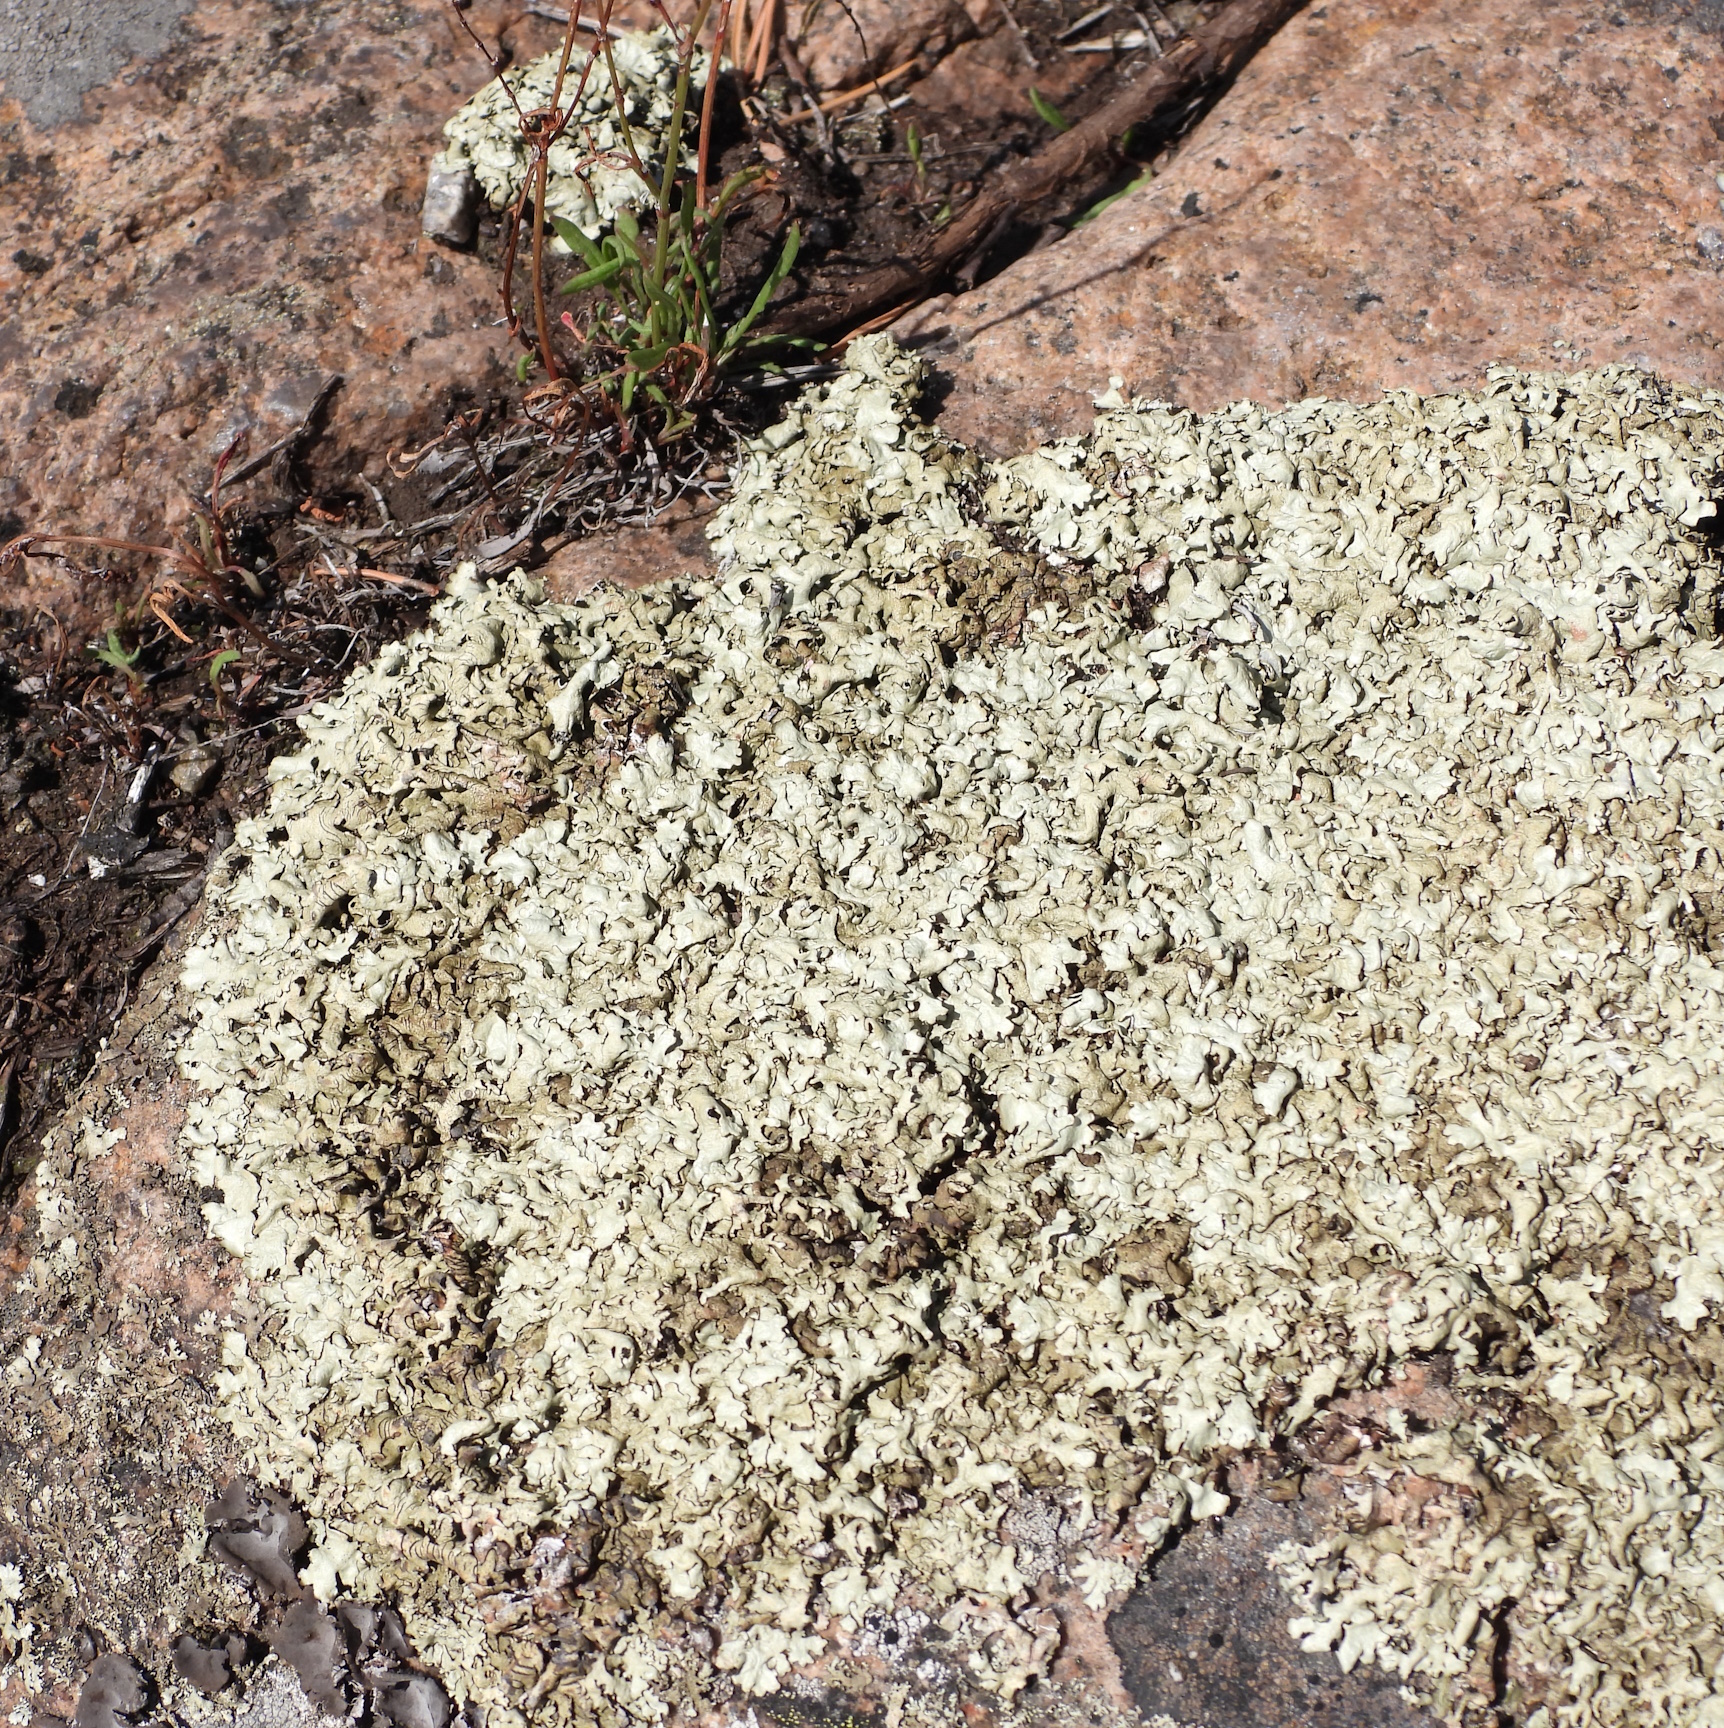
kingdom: Fungi
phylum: Ascomycota
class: Lecanoromycetes
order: Lecanorales
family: Parmeliaceae
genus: Xanthoparmelia
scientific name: Xanthoparmelia stenophylla
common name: Shingled rock shield
